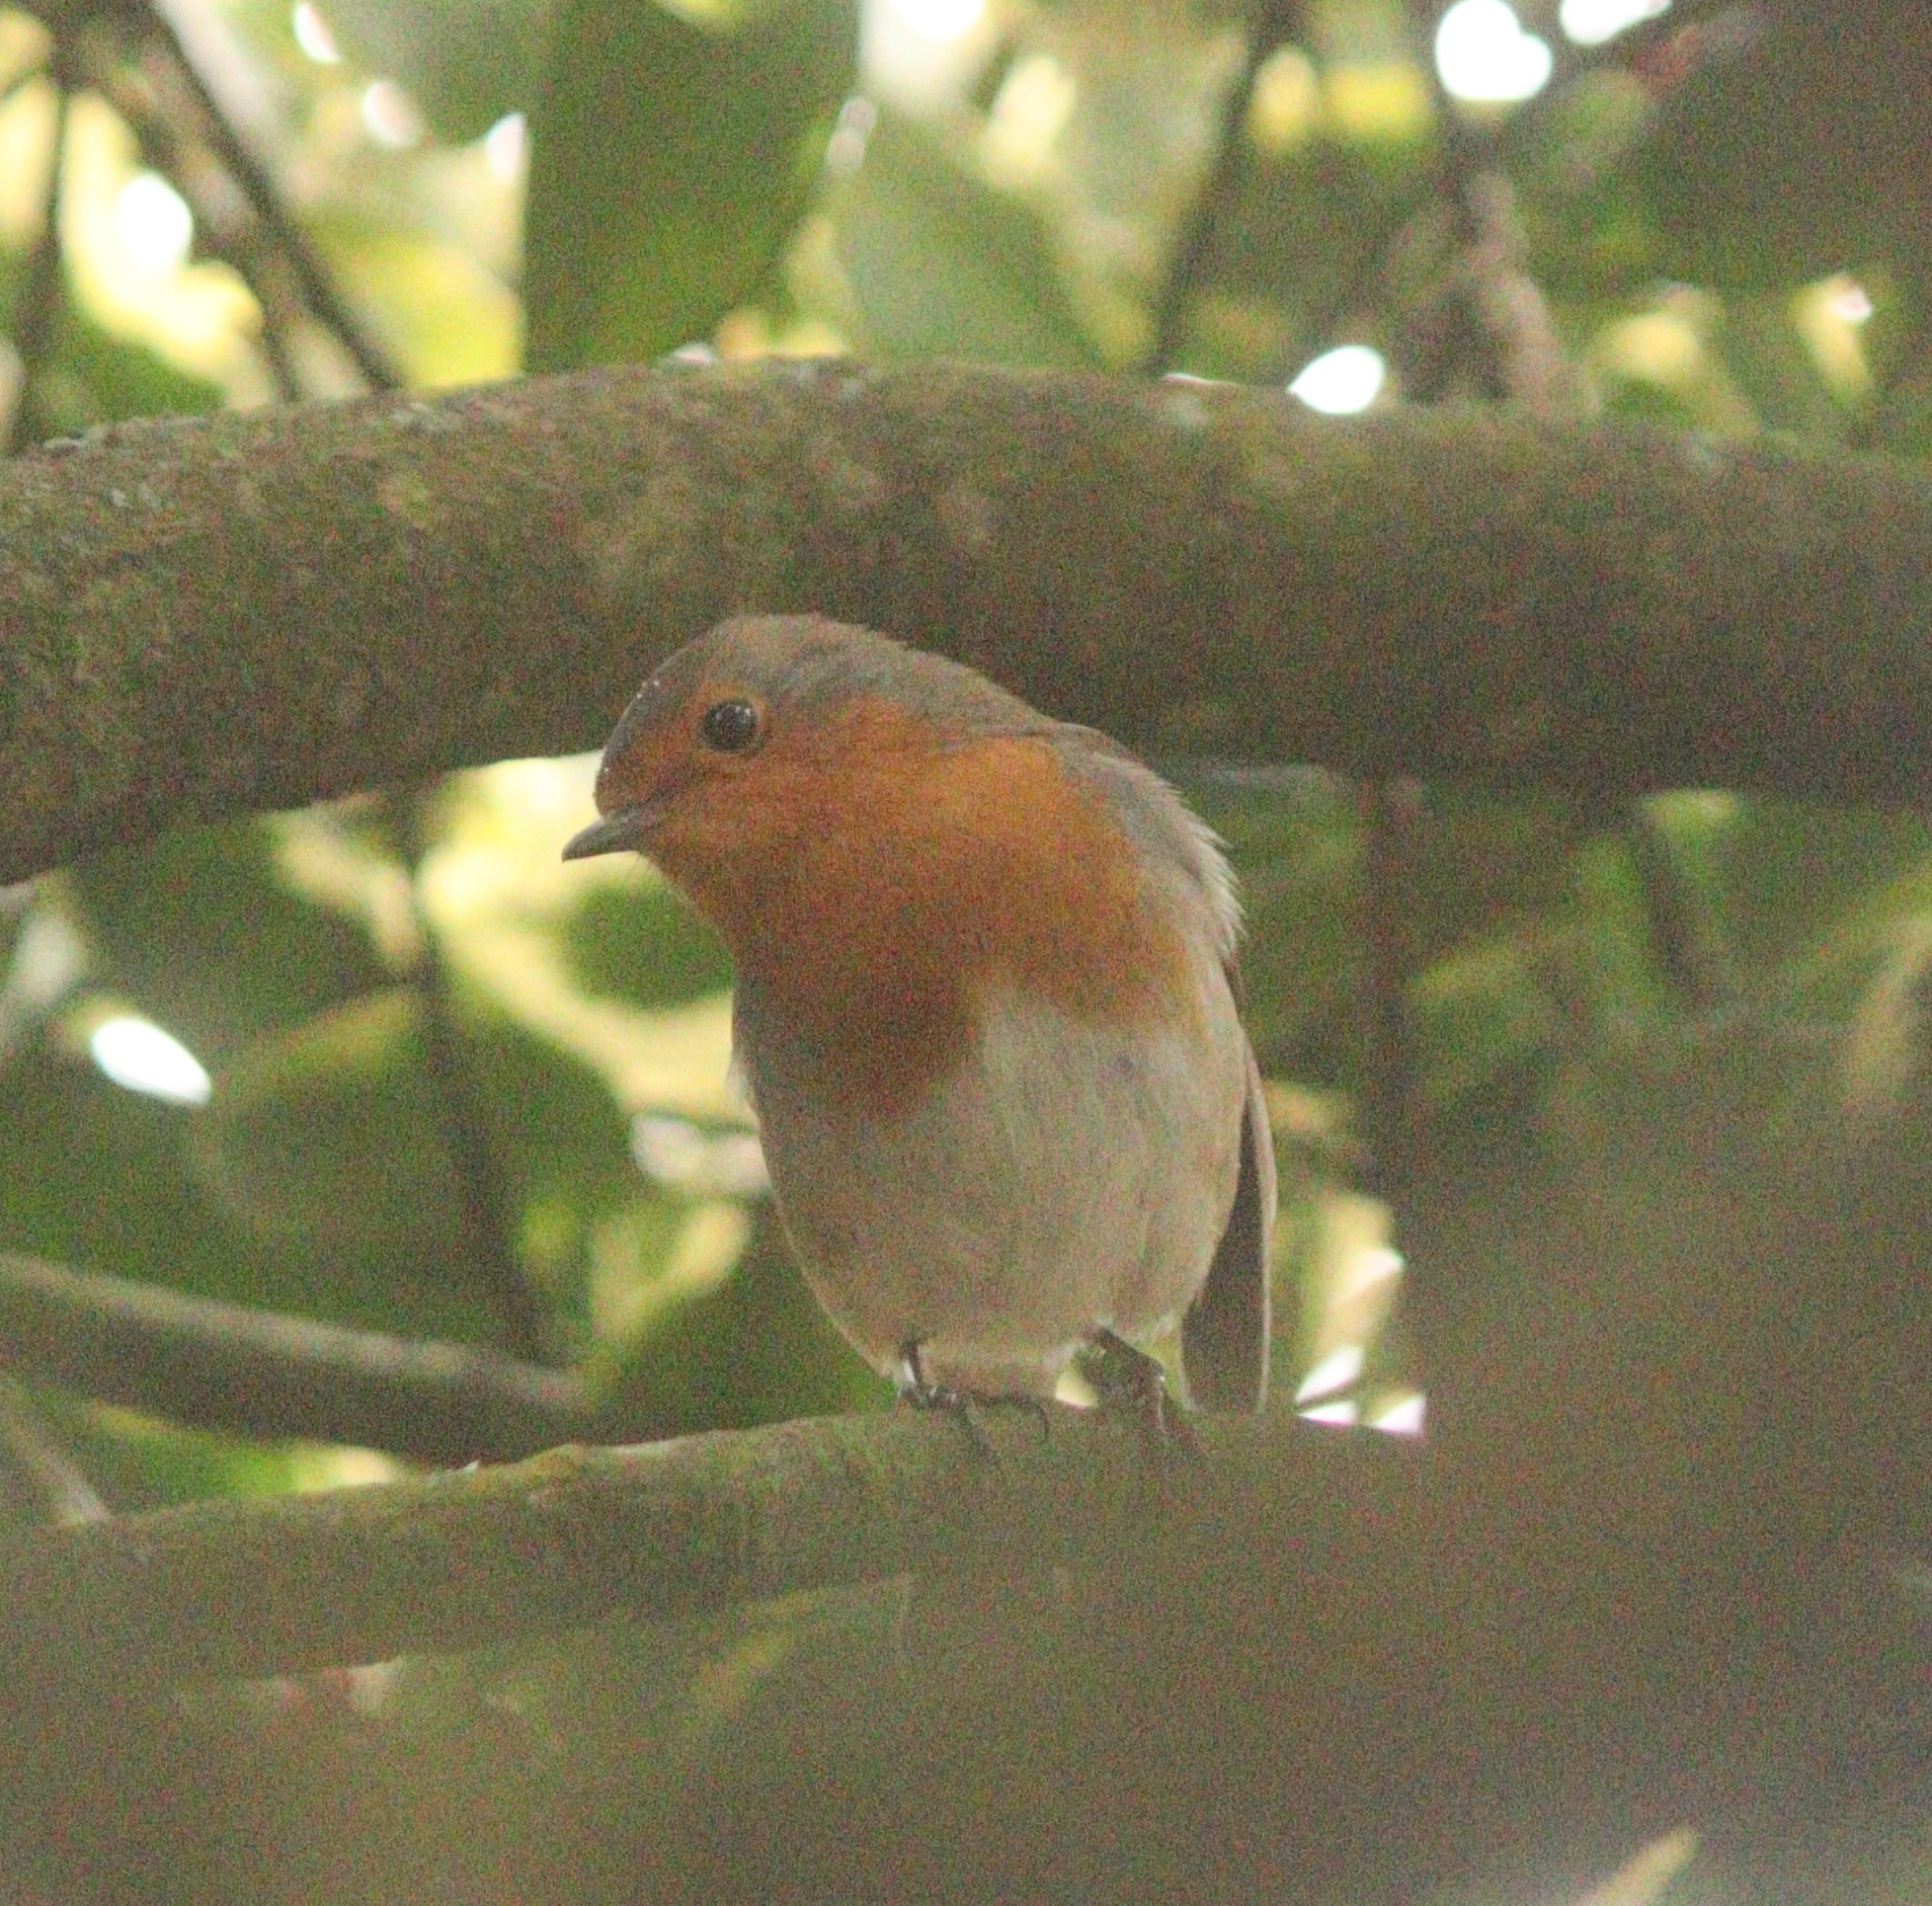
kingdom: Animalia
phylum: Chordata
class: Aves
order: Passeriformes
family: Muscicapidae
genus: Erithacus
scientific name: Erithacus rubecula
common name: European robin
